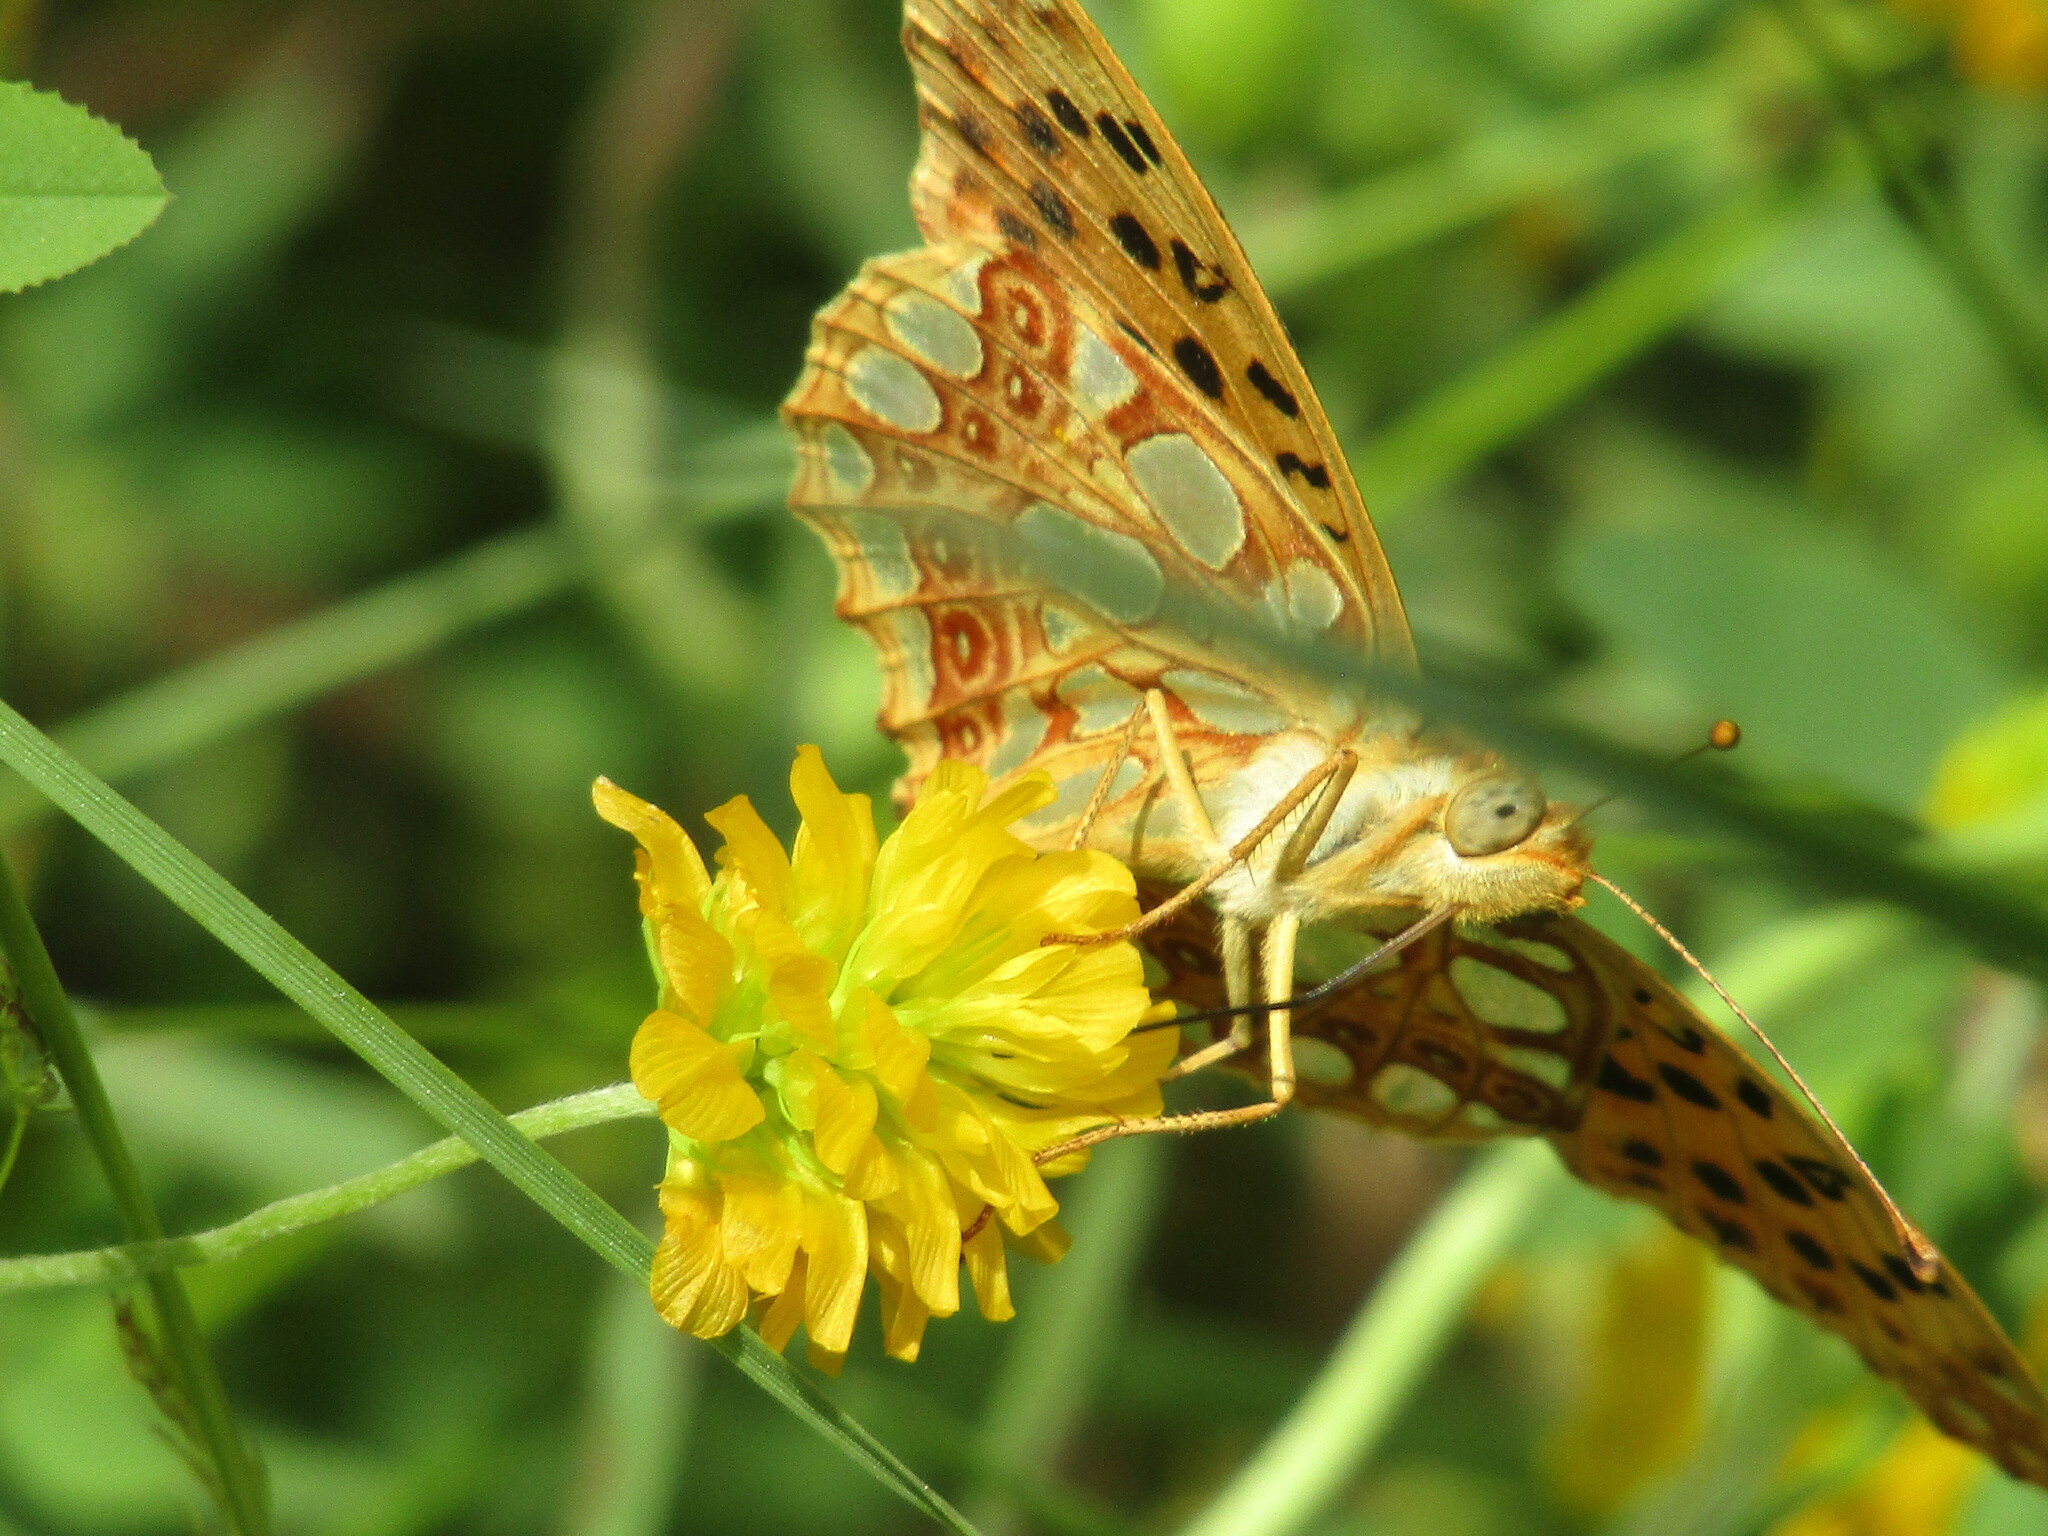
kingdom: Animalia
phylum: Arthropoda
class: Insecta
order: Lepidoptera
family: Nymphalidae
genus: Issoria
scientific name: Issoria lathonia
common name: Queen of spain fritillary
